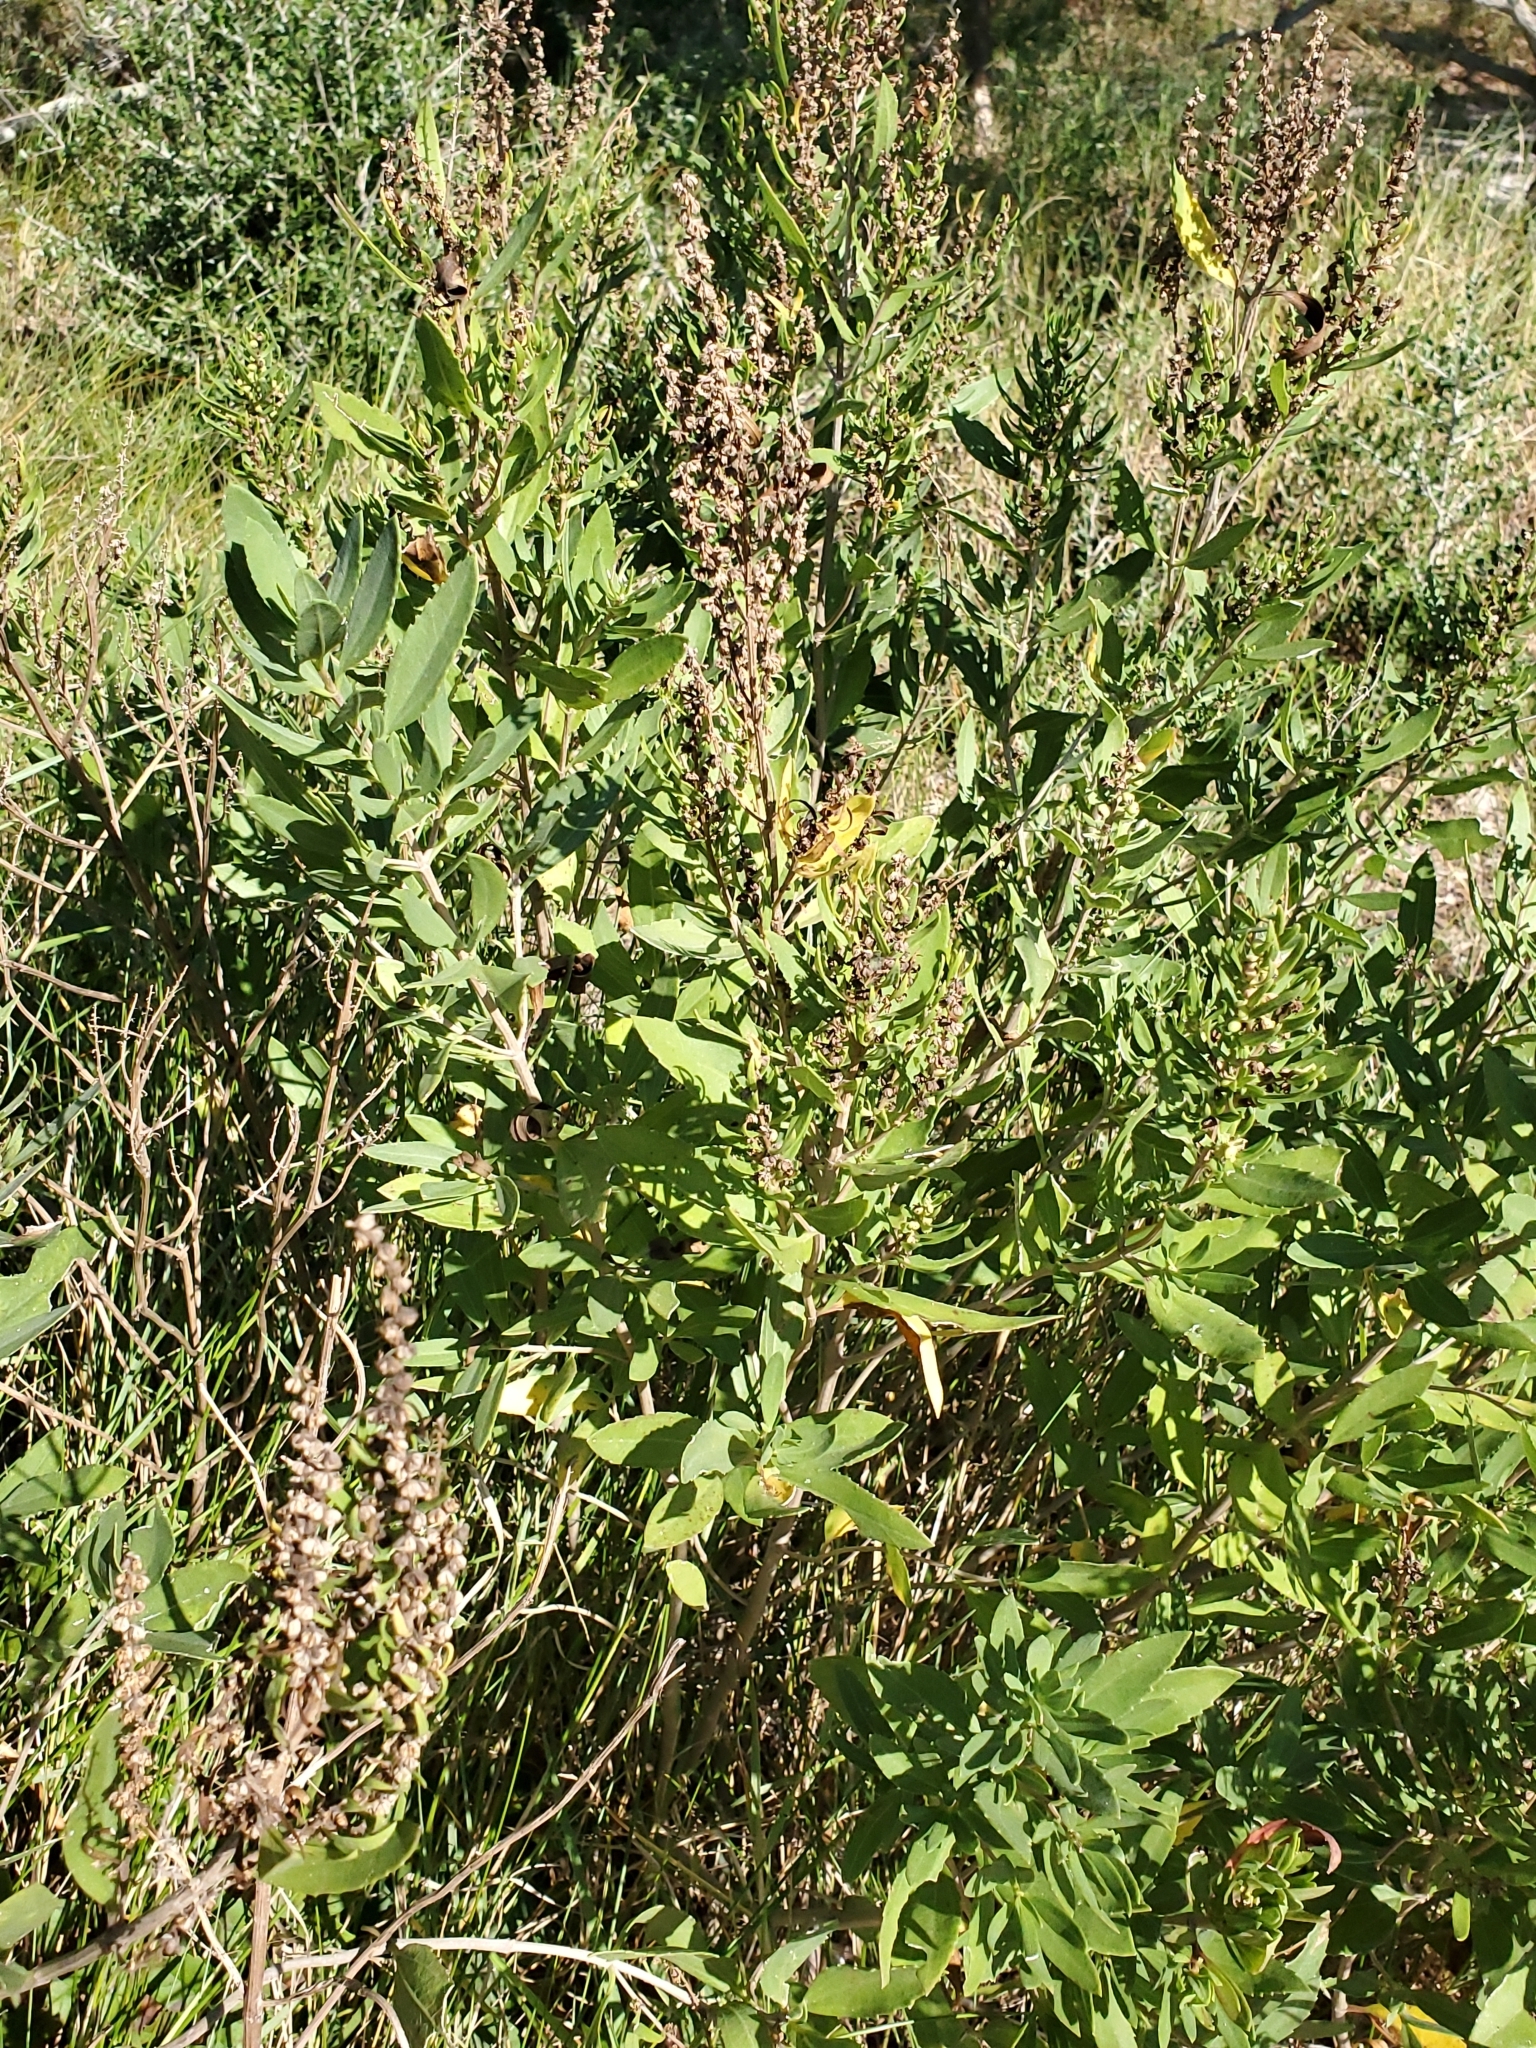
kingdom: Plantae
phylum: Tracheophyta
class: Magnoliopsida
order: Asterales
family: Asteraceae
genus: Iva
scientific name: Iva frutescens
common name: Big-leaved marsh-elder
